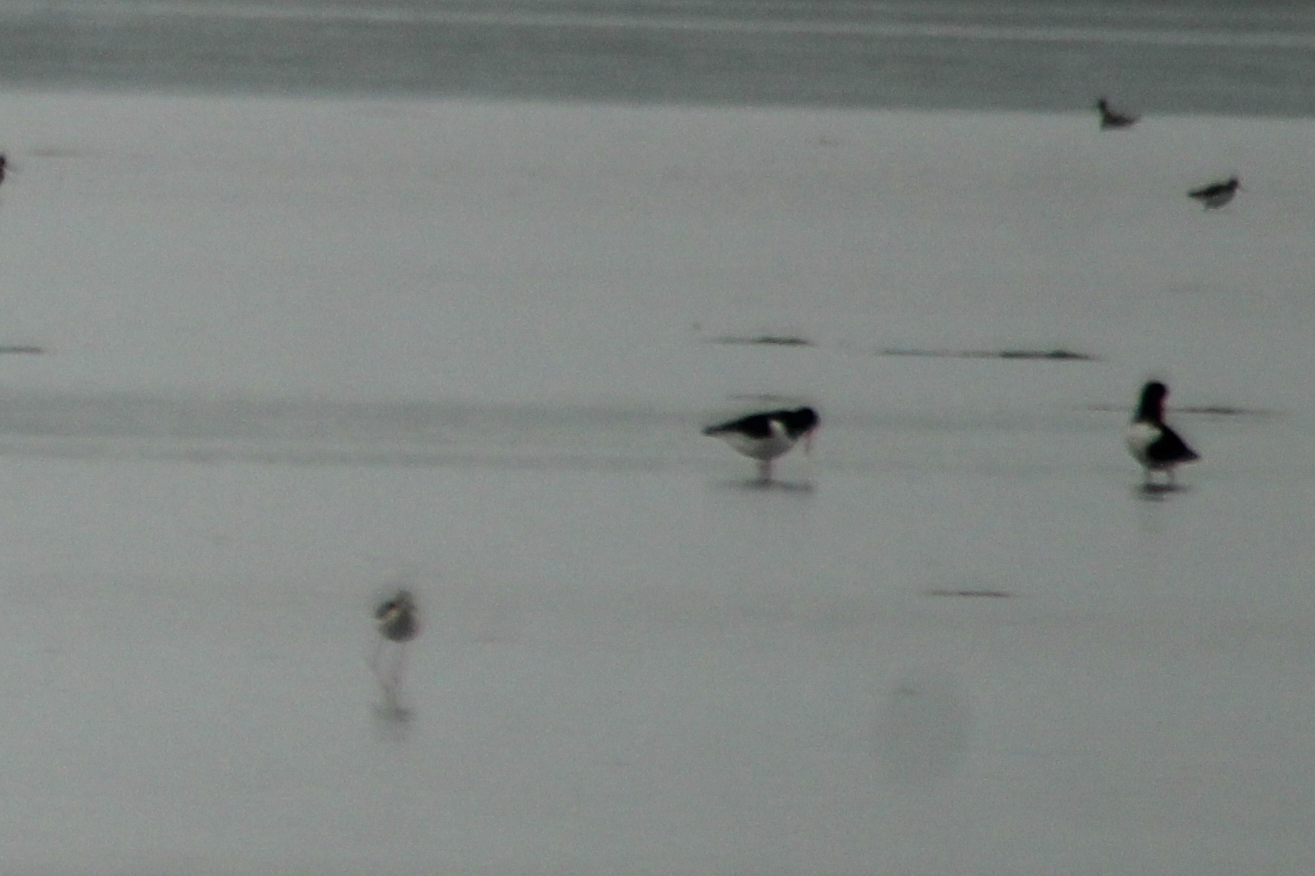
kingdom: Animalia
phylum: Chordata
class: Aves
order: Charadriiformes
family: Haematopodidae
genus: Haematopus
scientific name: Haematopus ostralegus
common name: Eurasian oystercatcher
